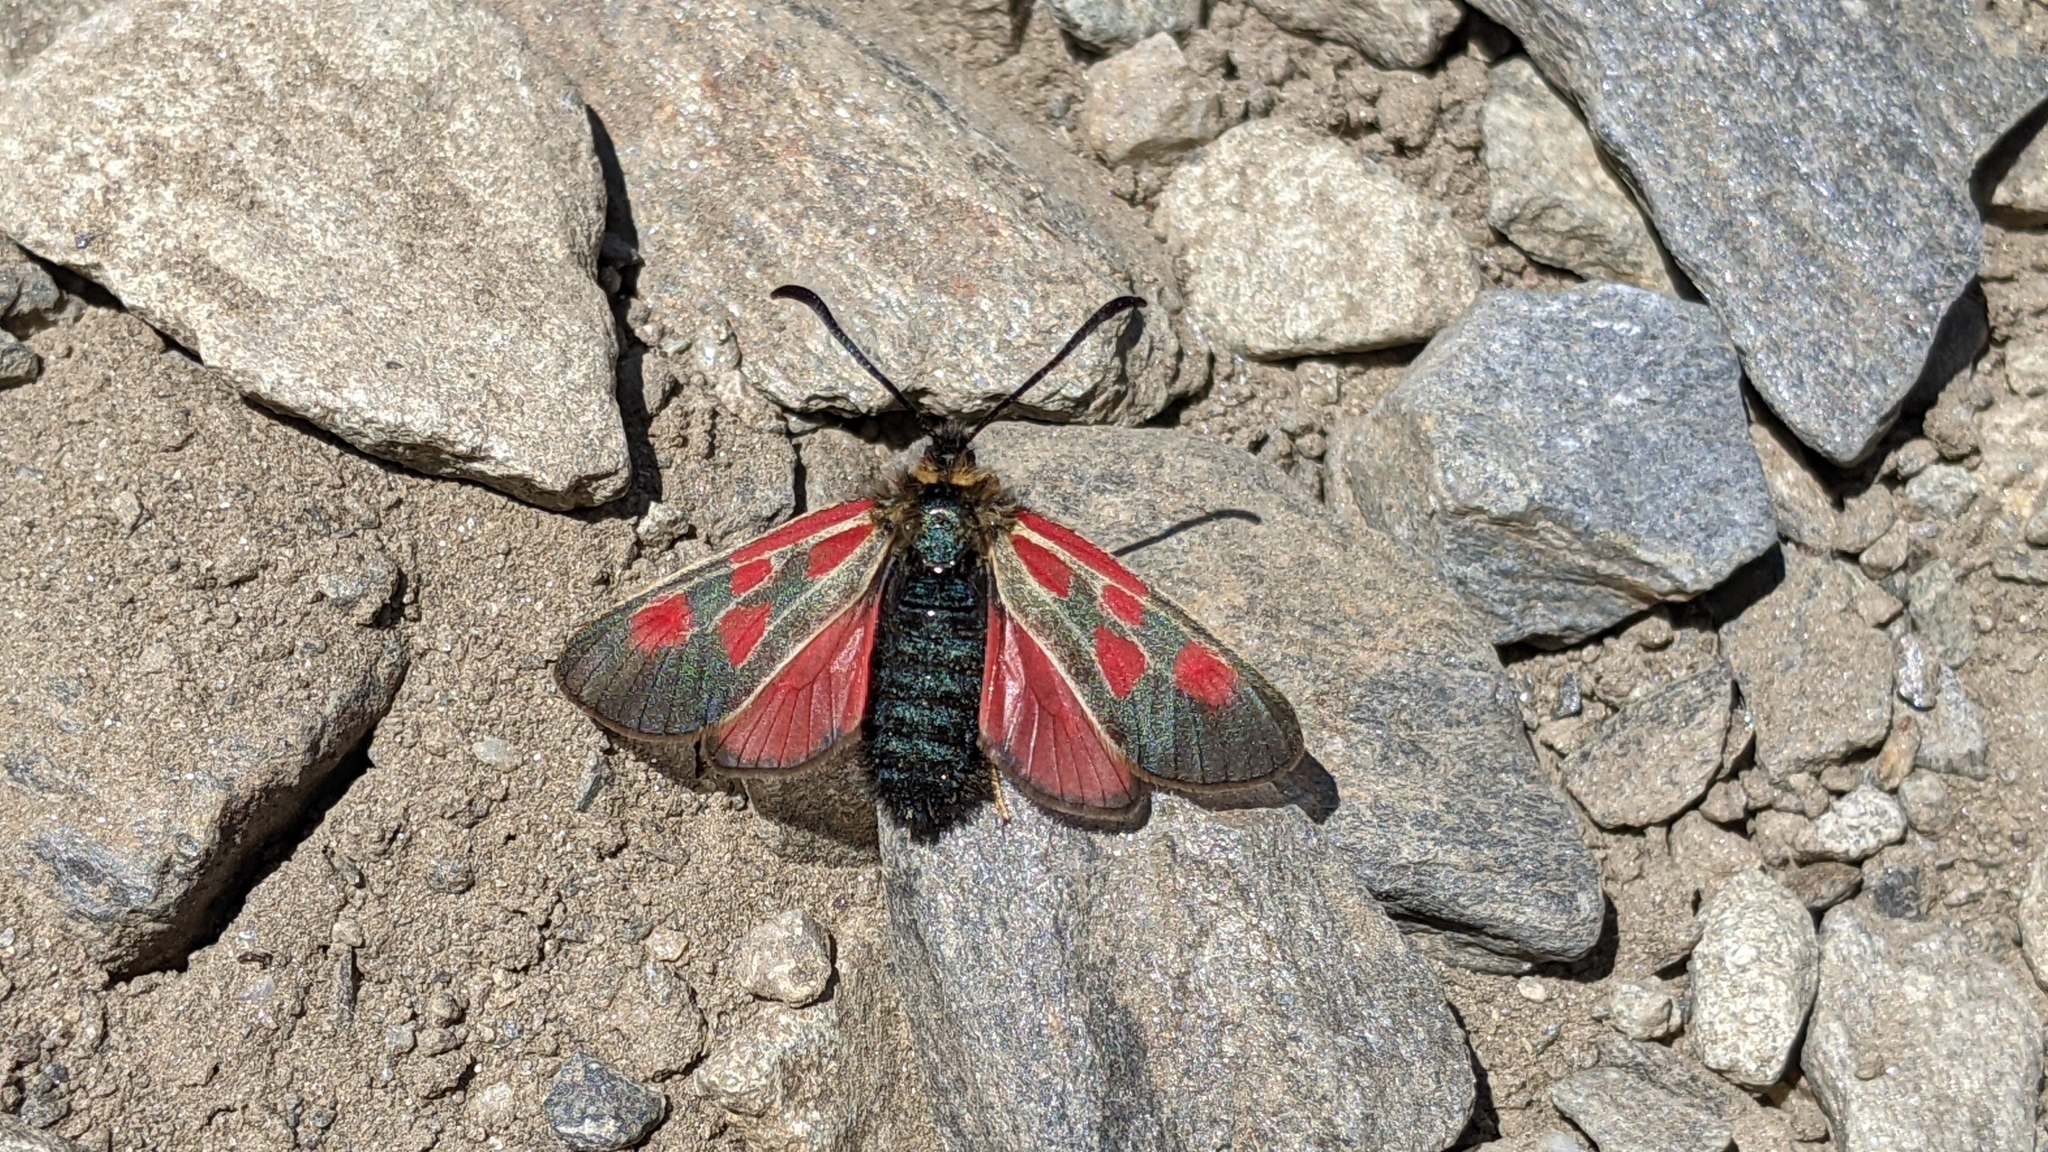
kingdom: Animalia
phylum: Arthropoda
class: Insecta
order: Lepidoptera
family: Zygaenidae
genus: Zygaena
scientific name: Zygaena exulans
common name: Scotch burnet
